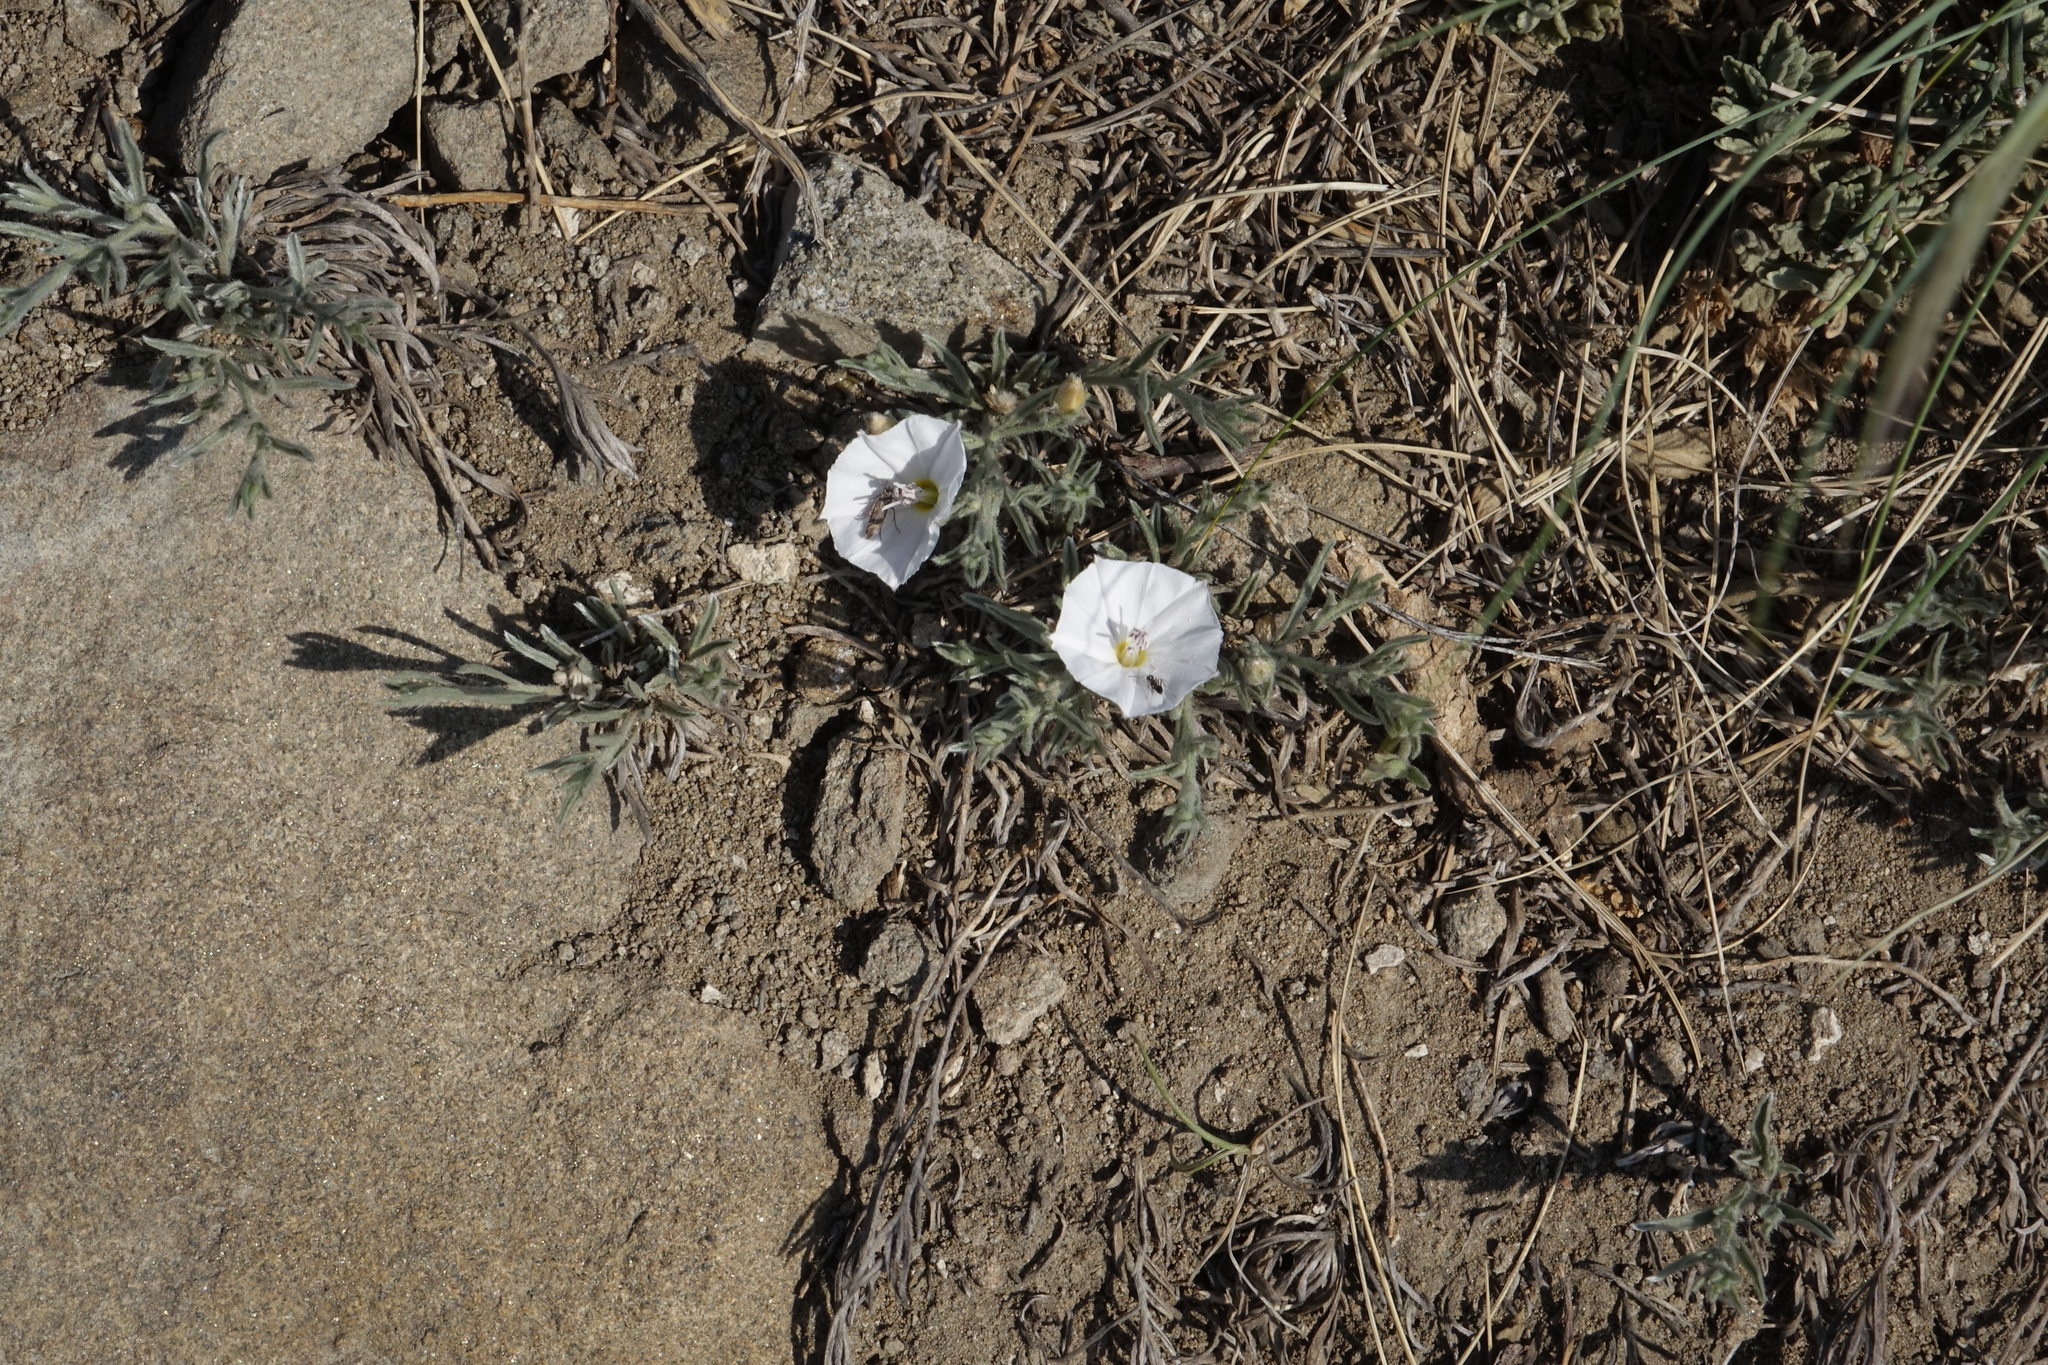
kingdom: Plantae
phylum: Tracheophyta
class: Magnoliopsida
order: Solanales
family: Convolvulaceae
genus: Convolvulus
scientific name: Convolvulus ammannii
